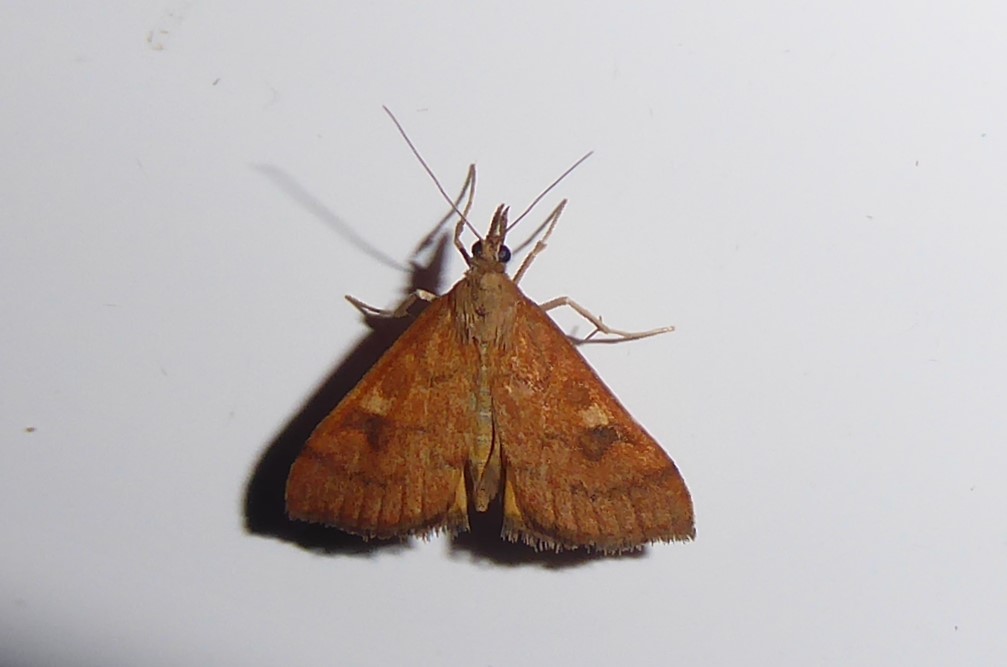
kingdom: Animalia
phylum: Arthropoda
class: Insecta
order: Lepidoptera
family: Crambidae
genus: Udea
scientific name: Udea Mnesictena flavidalis
